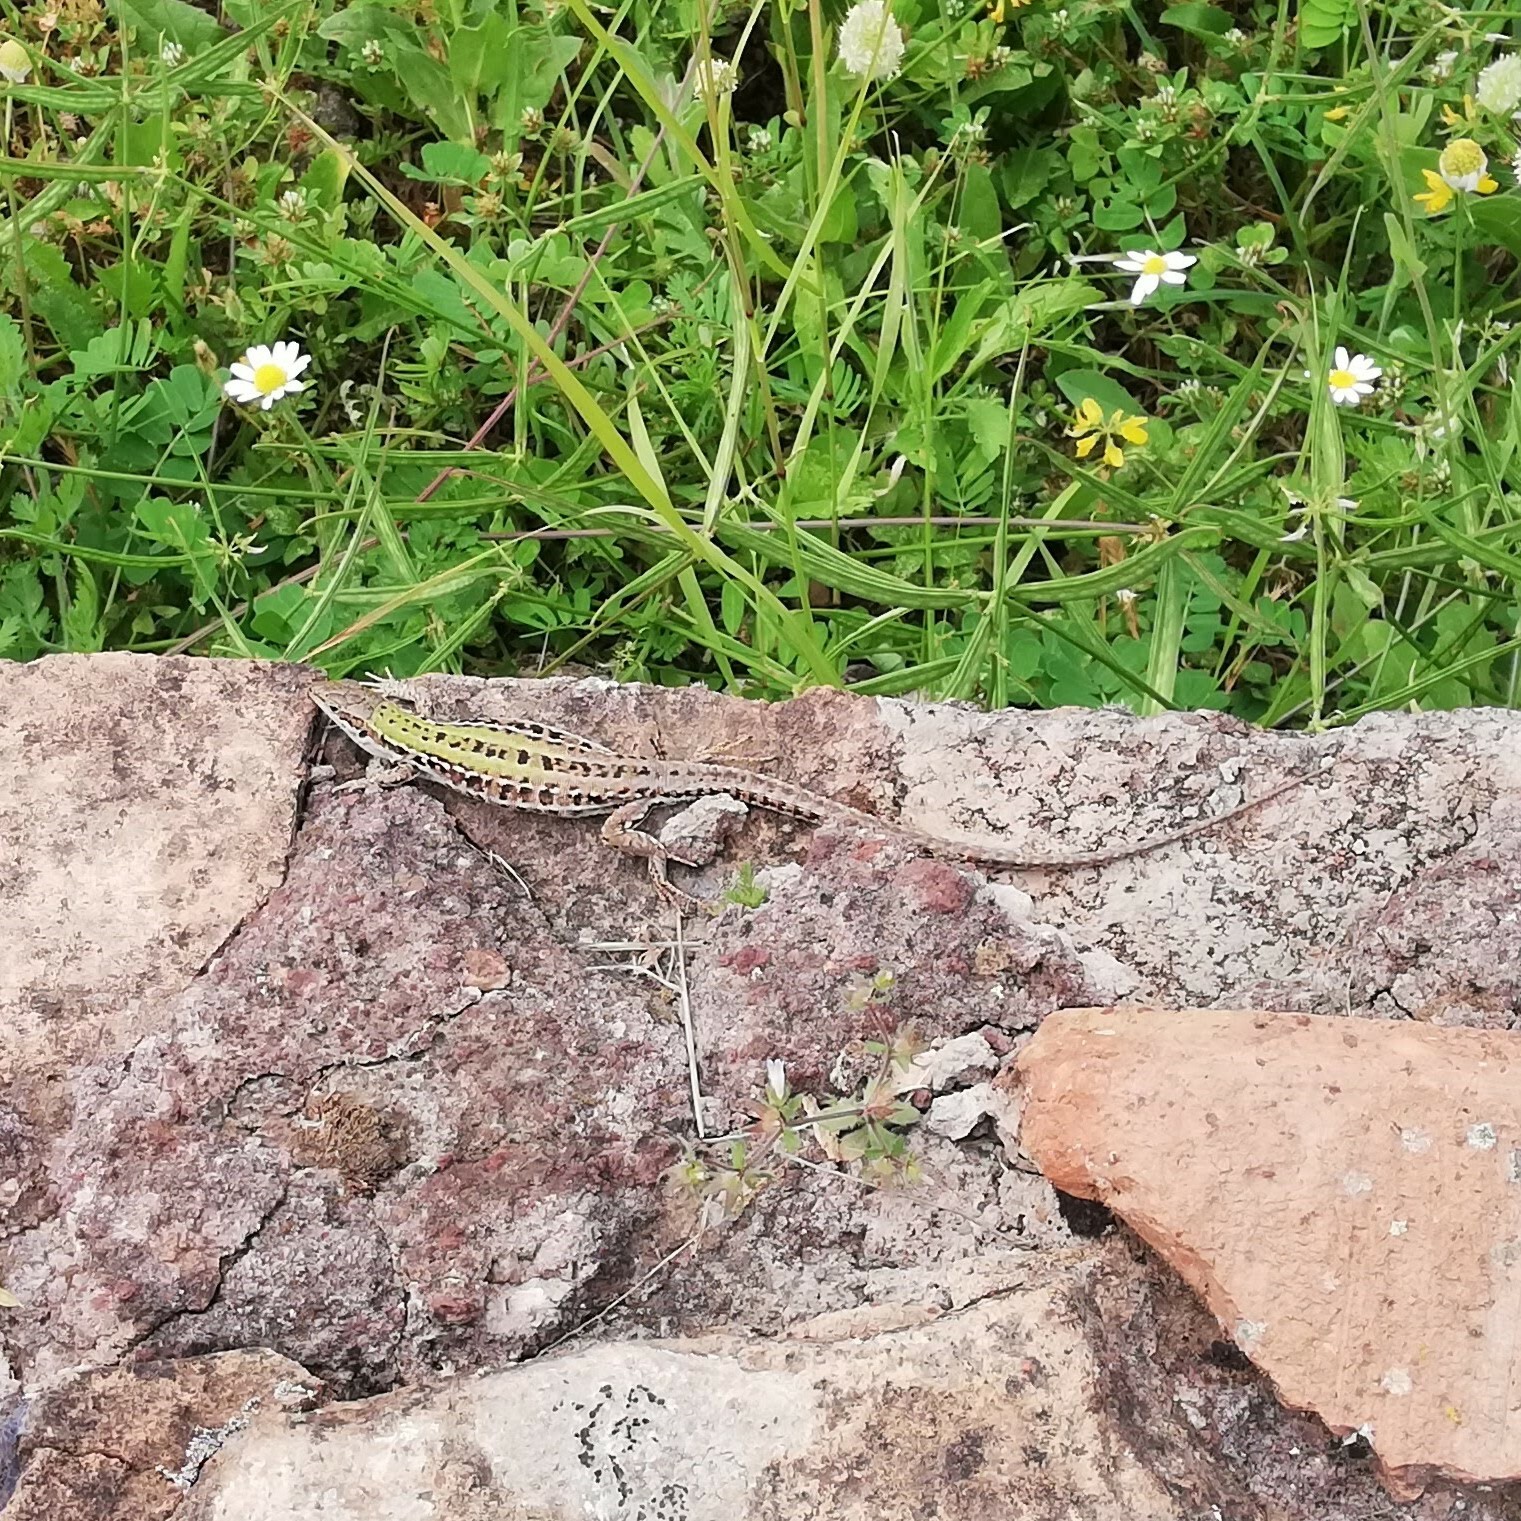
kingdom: Animalia
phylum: Chordata
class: Squamata
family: Lacertidae
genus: Podarcis
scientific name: Podarcis siculus
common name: Italian wall lizard
